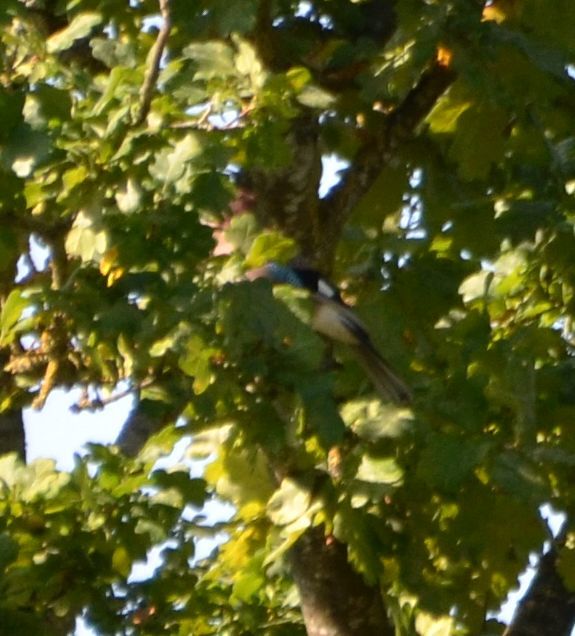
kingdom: Animalia
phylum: Chordata
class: Aves
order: Passeriformes
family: Corvidae
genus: Garrulus
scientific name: Garrulus glandarius
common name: Eurasian jay
